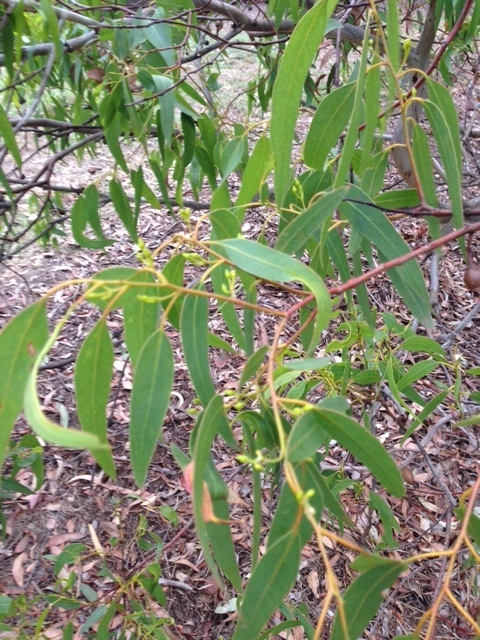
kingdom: Plantae
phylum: Tracheophyta
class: Magnoliopsida
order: Myrtales
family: Myrtaceae
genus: Eucalyptus
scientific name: Eucalyptus leucoxylon
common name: Blue gum
